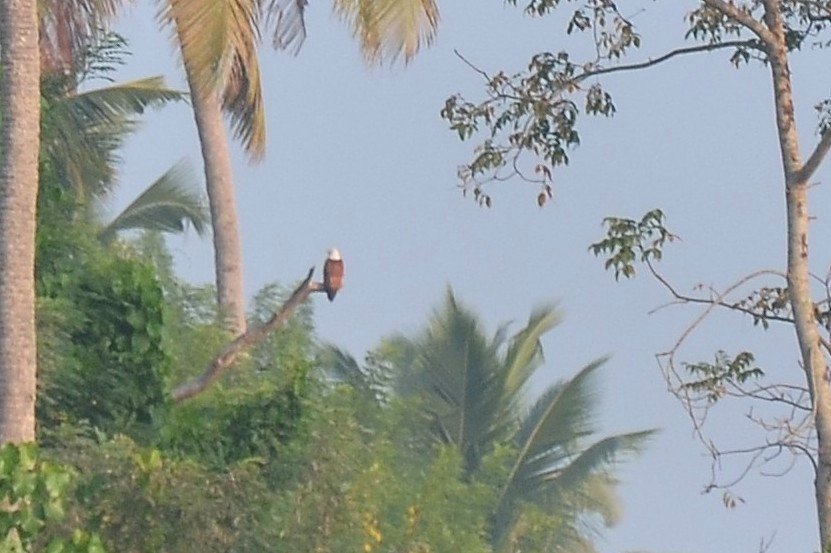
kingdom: Animalia
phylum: Chordata
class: Aves
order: Accipitriformes
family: Accipitridae
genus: Haliastur
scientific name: Haliastur indus
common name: Brahminy kite
